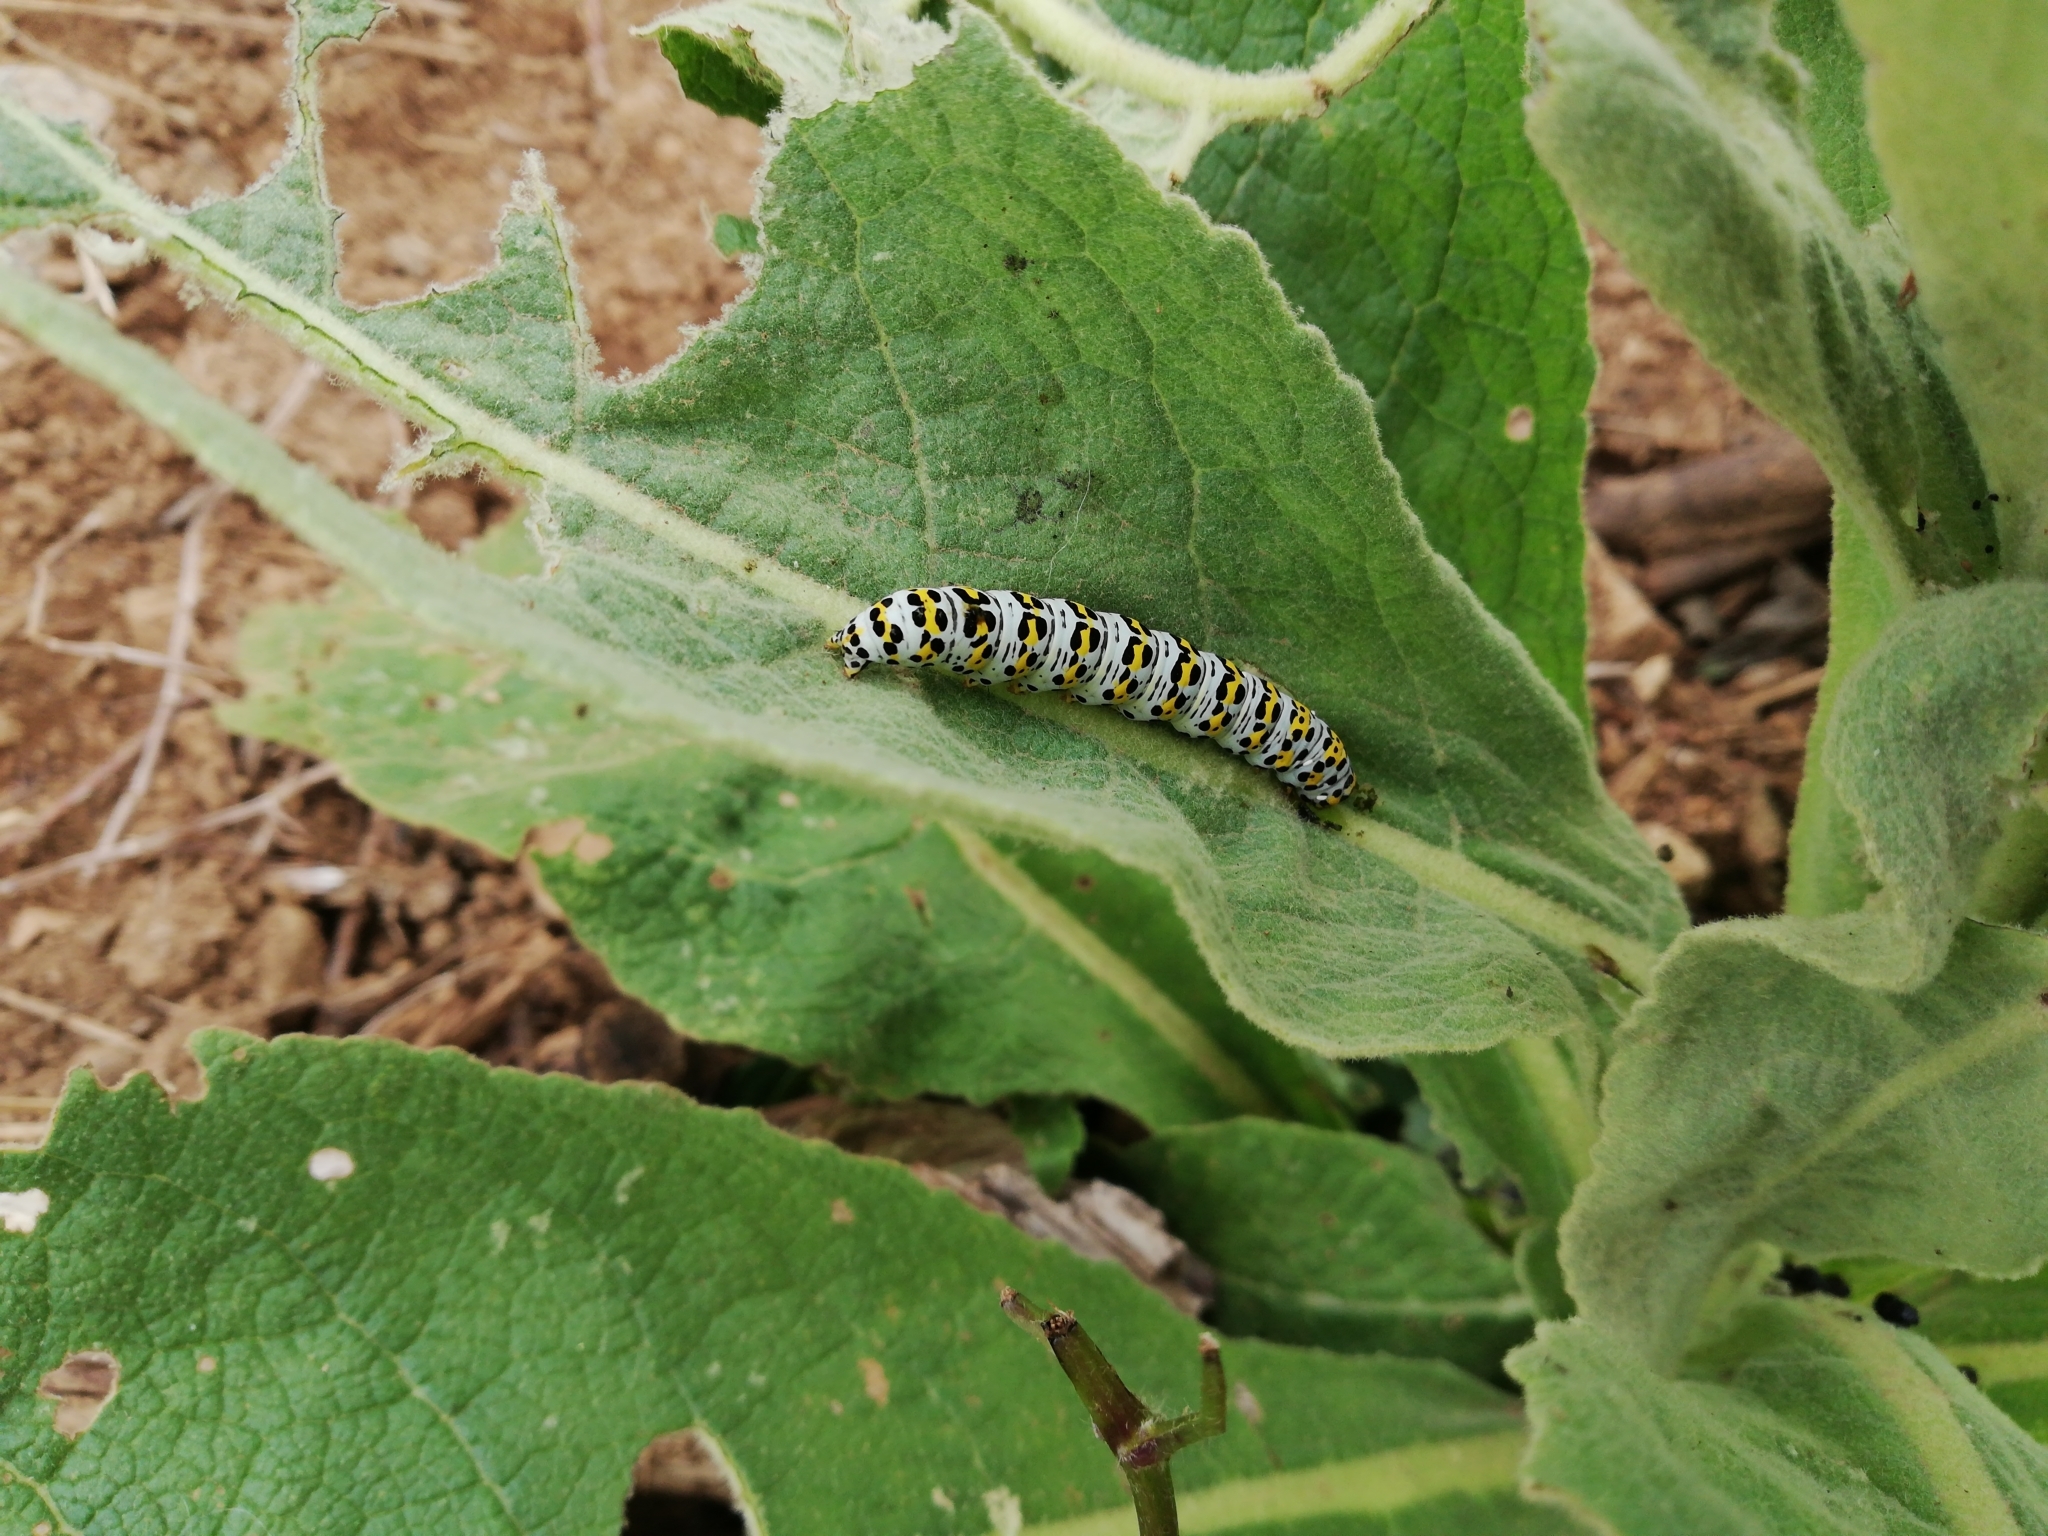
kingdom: Animalia
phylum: Arthropoda
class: Insecta
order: Lepidoptera
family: Noctuidae
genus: Cucullia
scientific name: Cucullia verbasci
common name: Mullein
